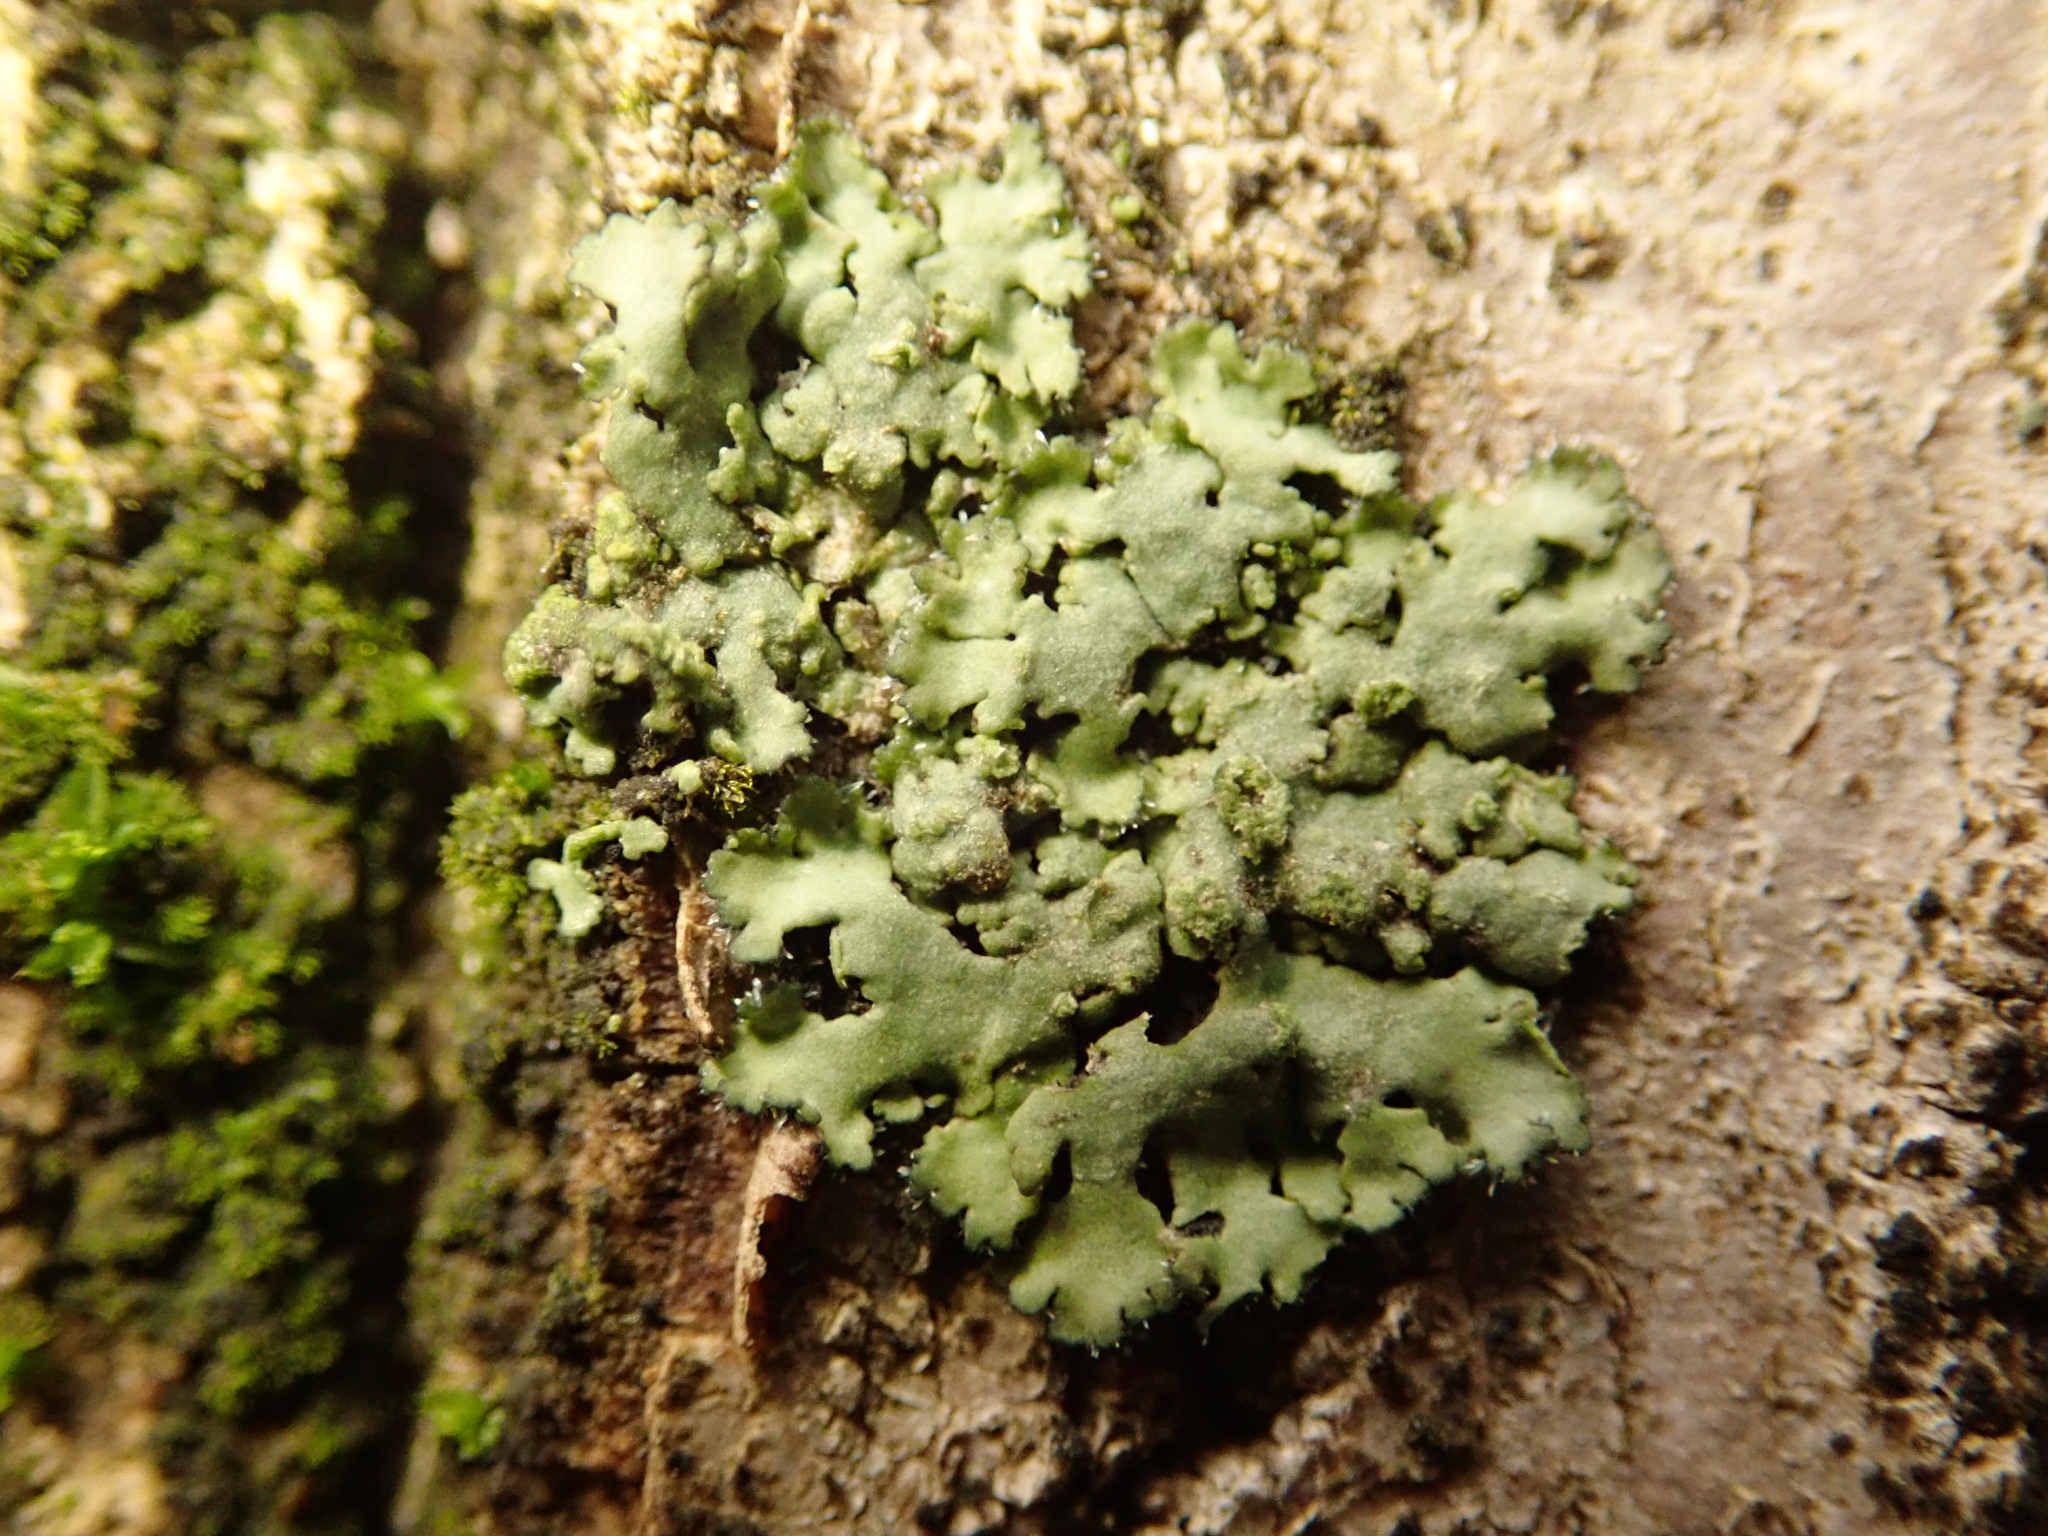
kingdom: Fungi
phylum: Ascomycota
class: Lecanoromycetes
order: Caliciales
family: Physciaceae
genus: Phaeophyscia
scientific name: Phaeophyscia orbicularis
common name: Mealy shadow lichen
